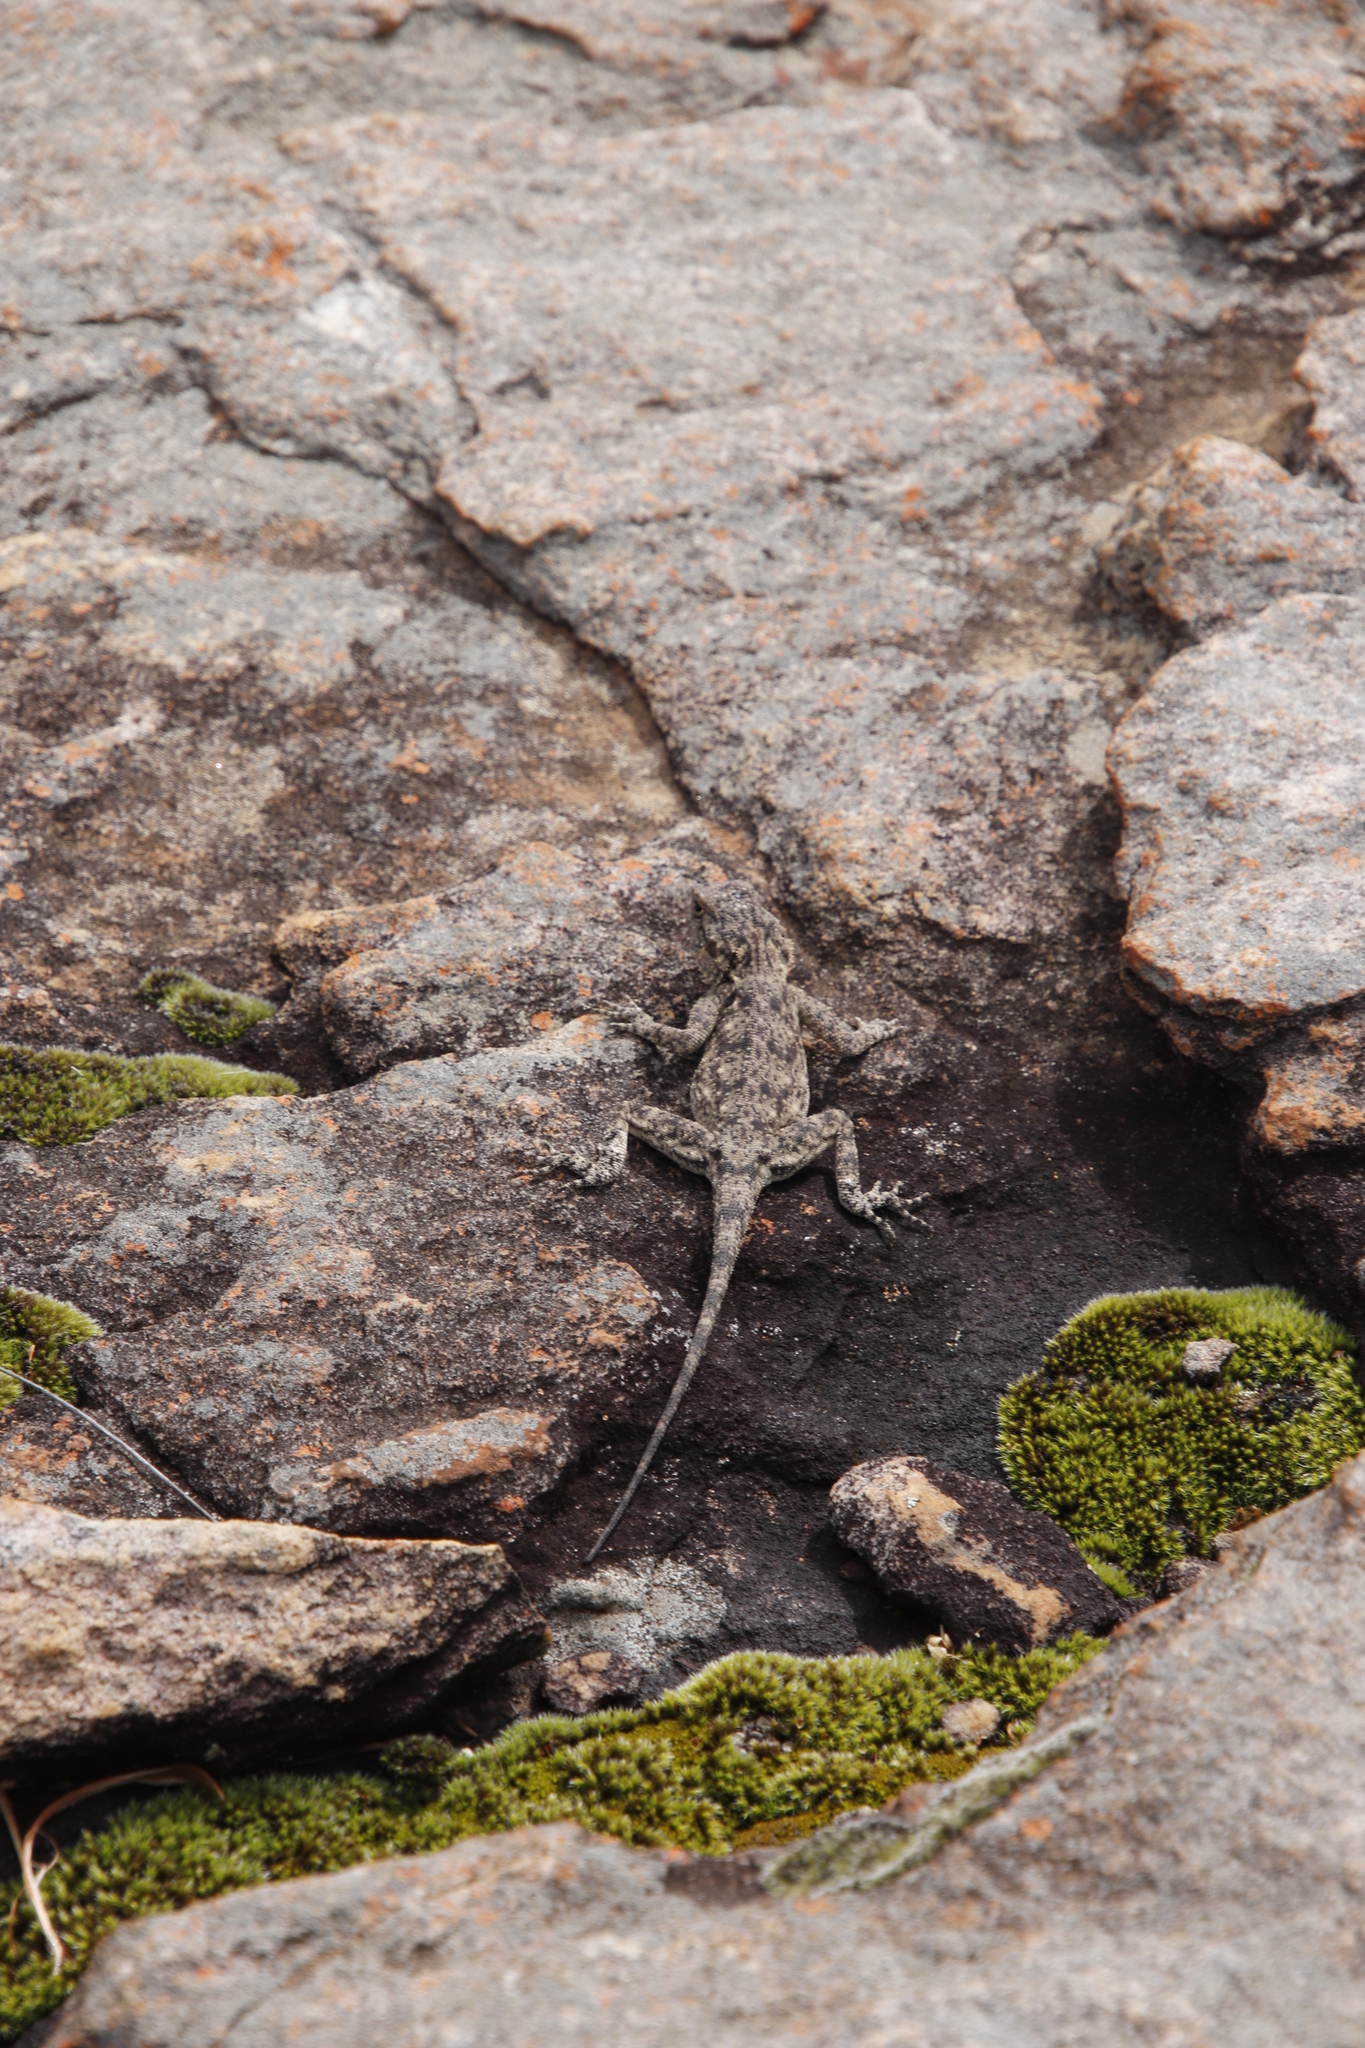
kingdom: Animalia
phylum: Chordata
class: Squamata
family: Agamidae
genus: Agama
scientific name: Agama atra
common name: Southern african rock agama
